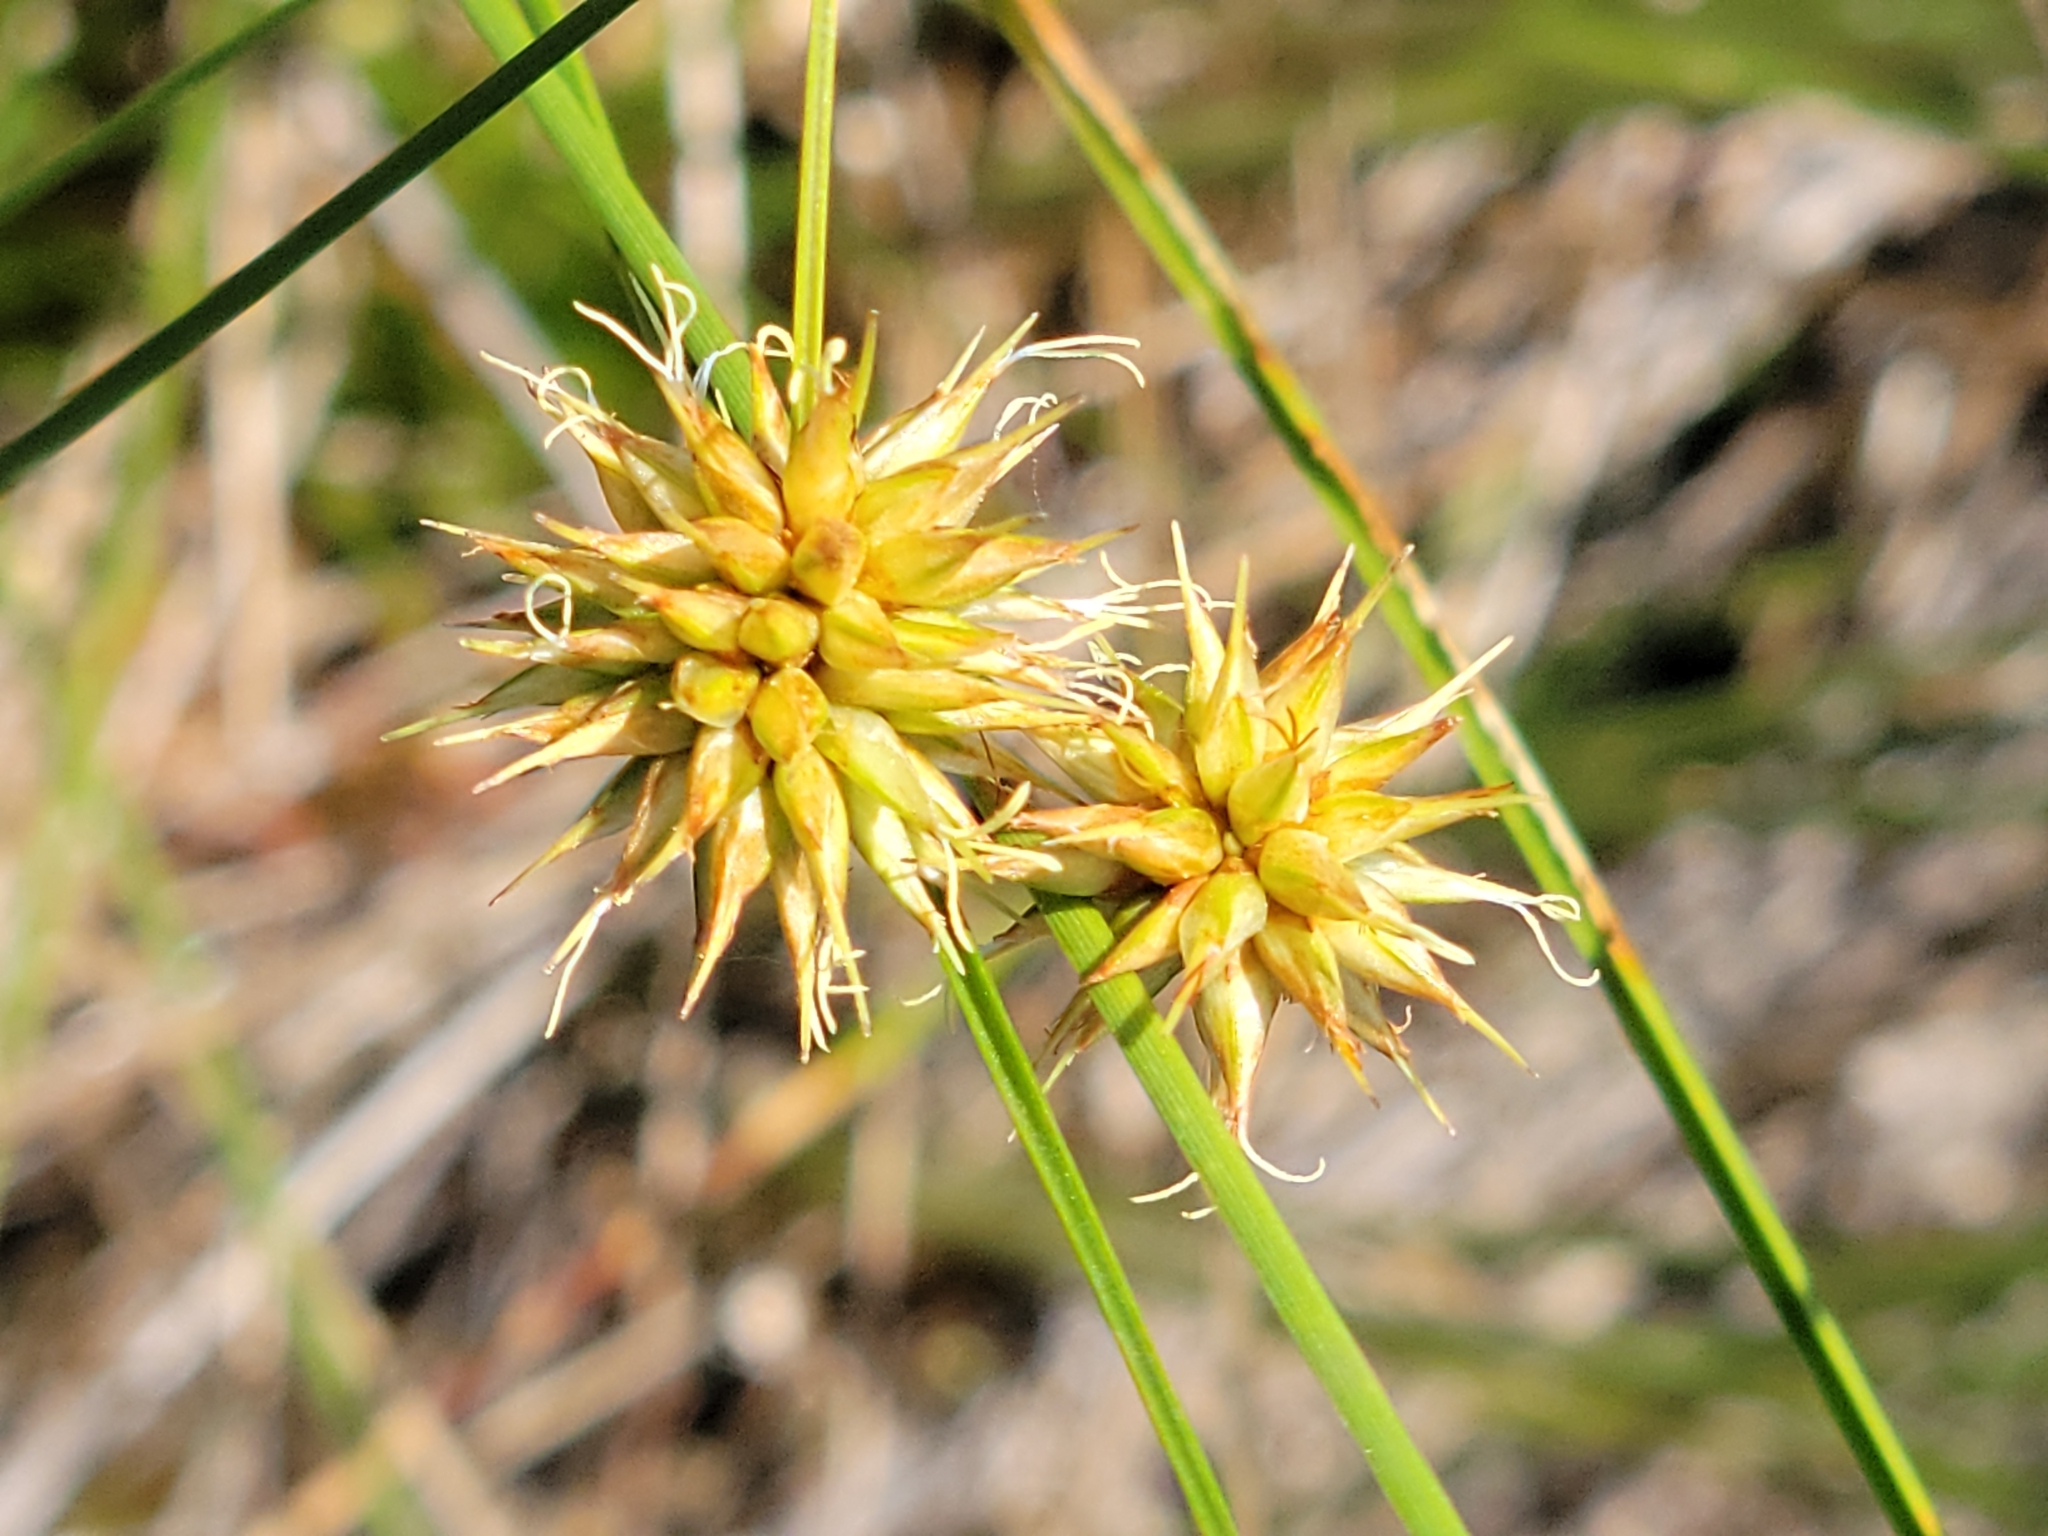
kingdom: Plantae
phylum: Tracheophyta
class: Liliopsida
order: Poales
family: Cyperaceae
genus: Rhynchospora
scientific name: Rhynchospora tracyi
